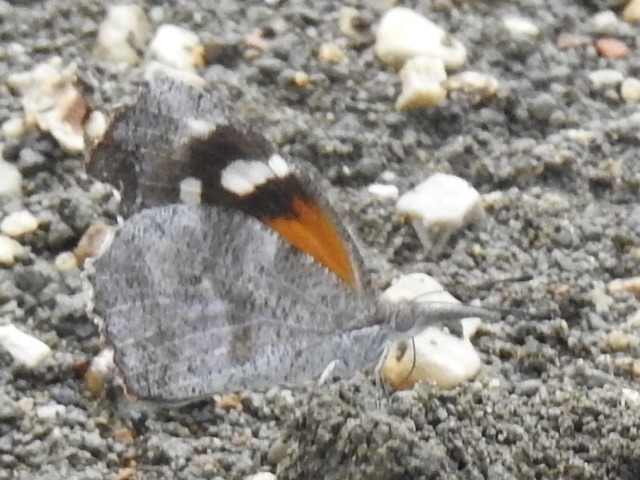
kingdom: Animalia
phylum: Arthropoda
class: Insecta
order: Lepidoptera
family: Nymphalidae
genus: Libytheana
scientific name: Libytheana carinenta
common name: American snout
